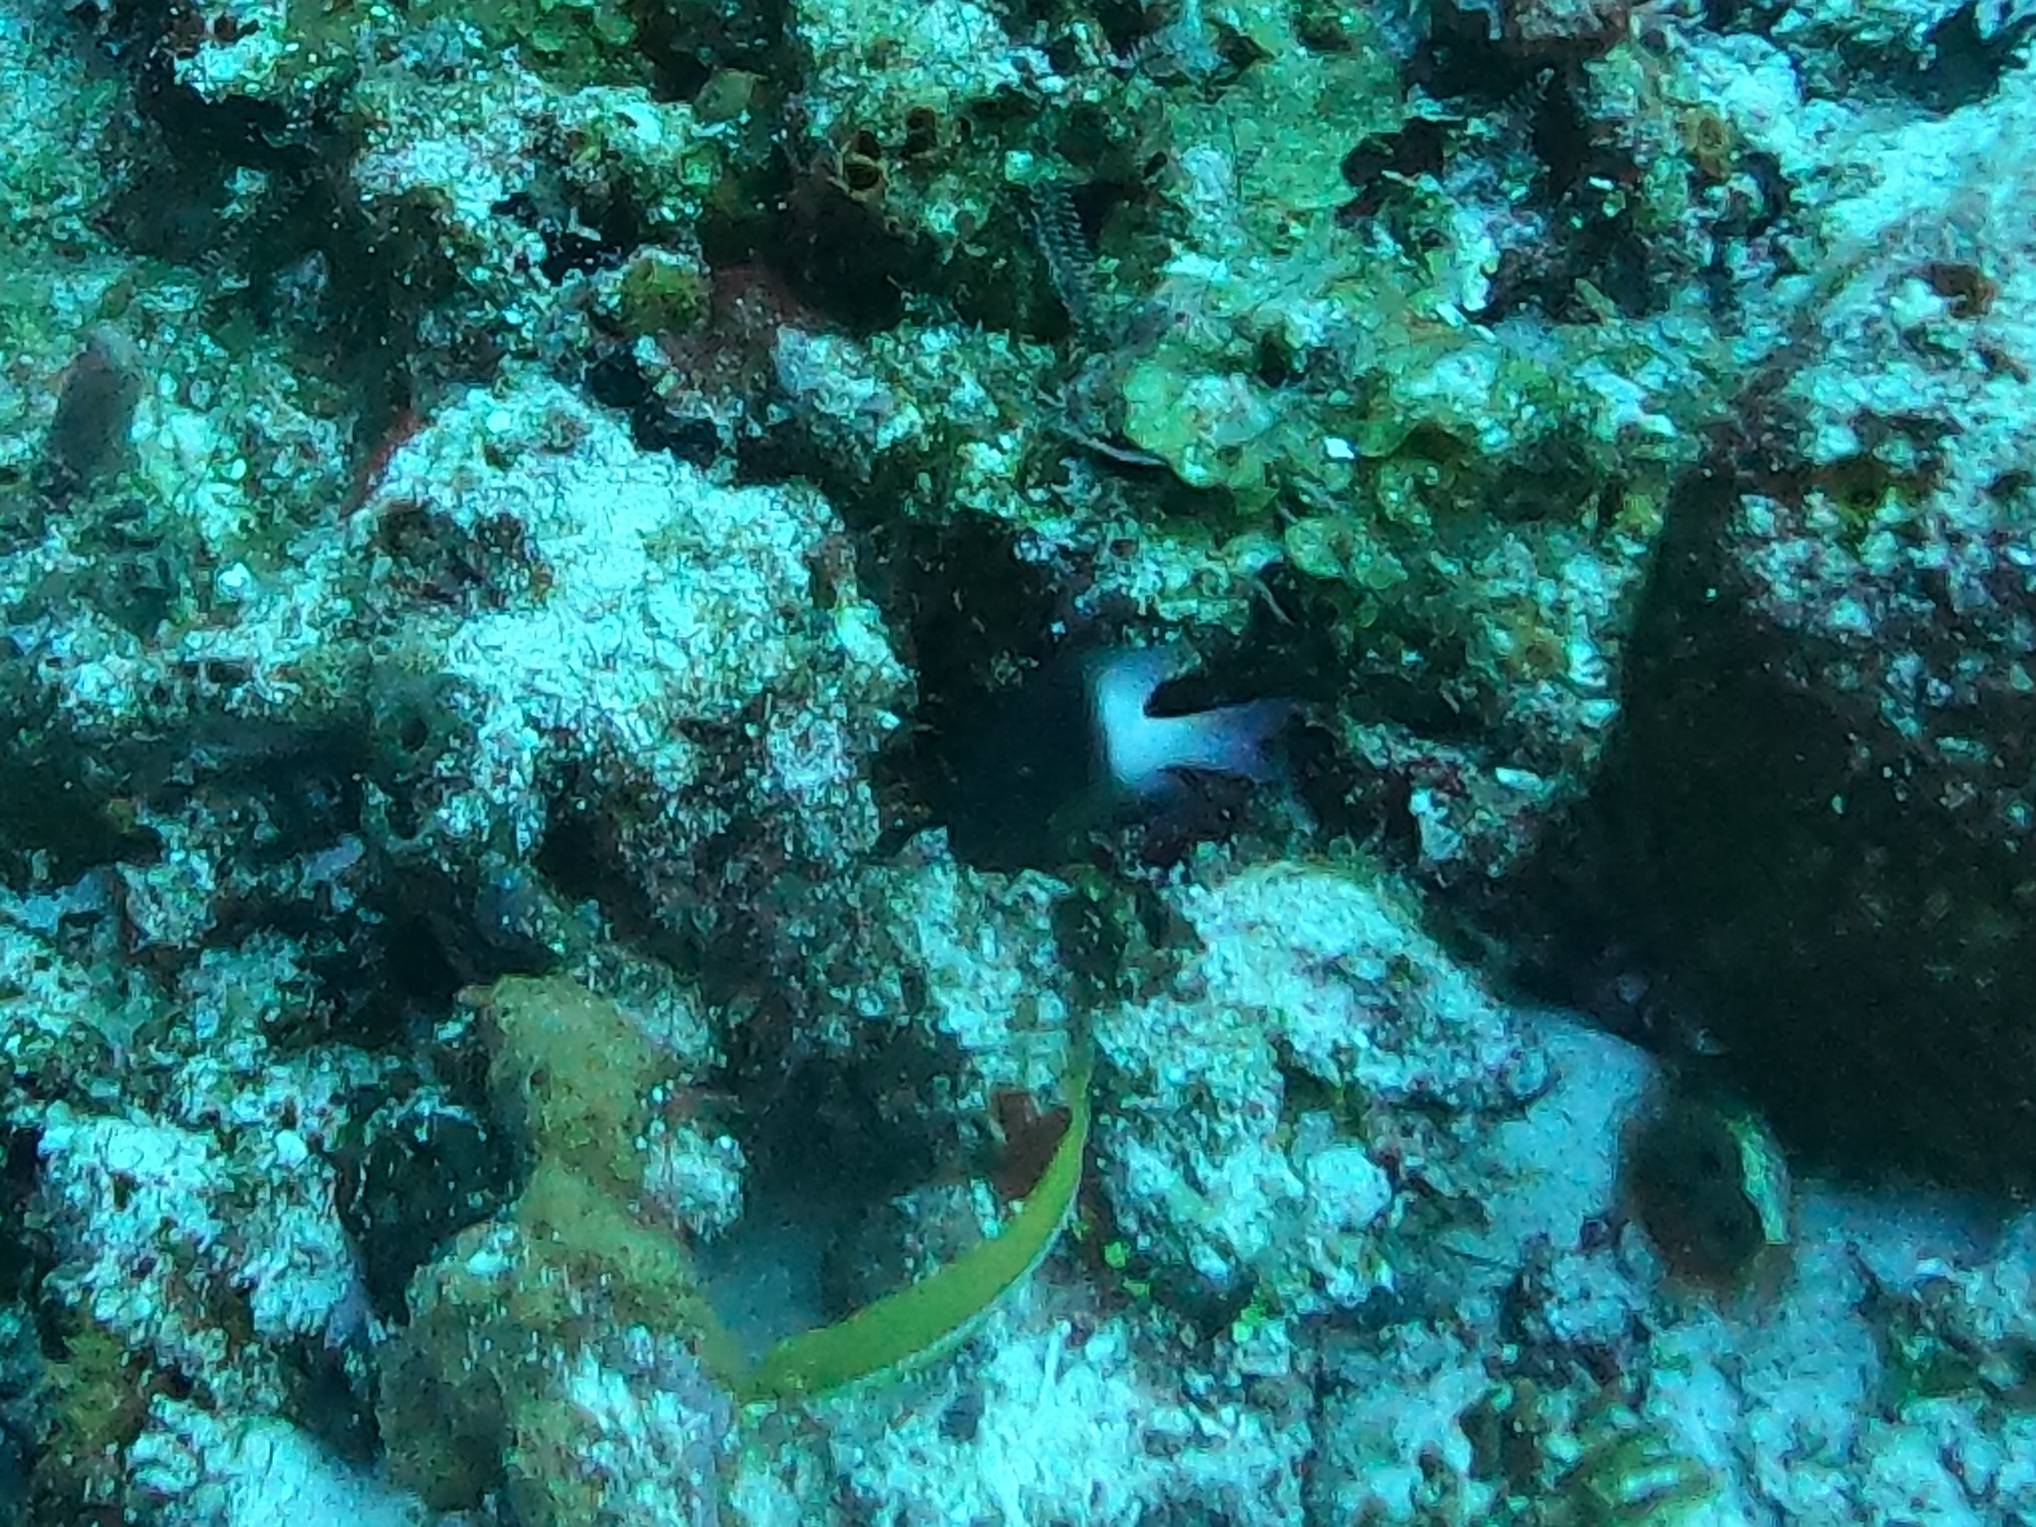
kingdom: Animalia
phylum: Chordata
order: Perciformes
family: Pomacentridae
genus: Stegastes
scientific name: Stegastes partitus
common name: Bicolor damselfish
